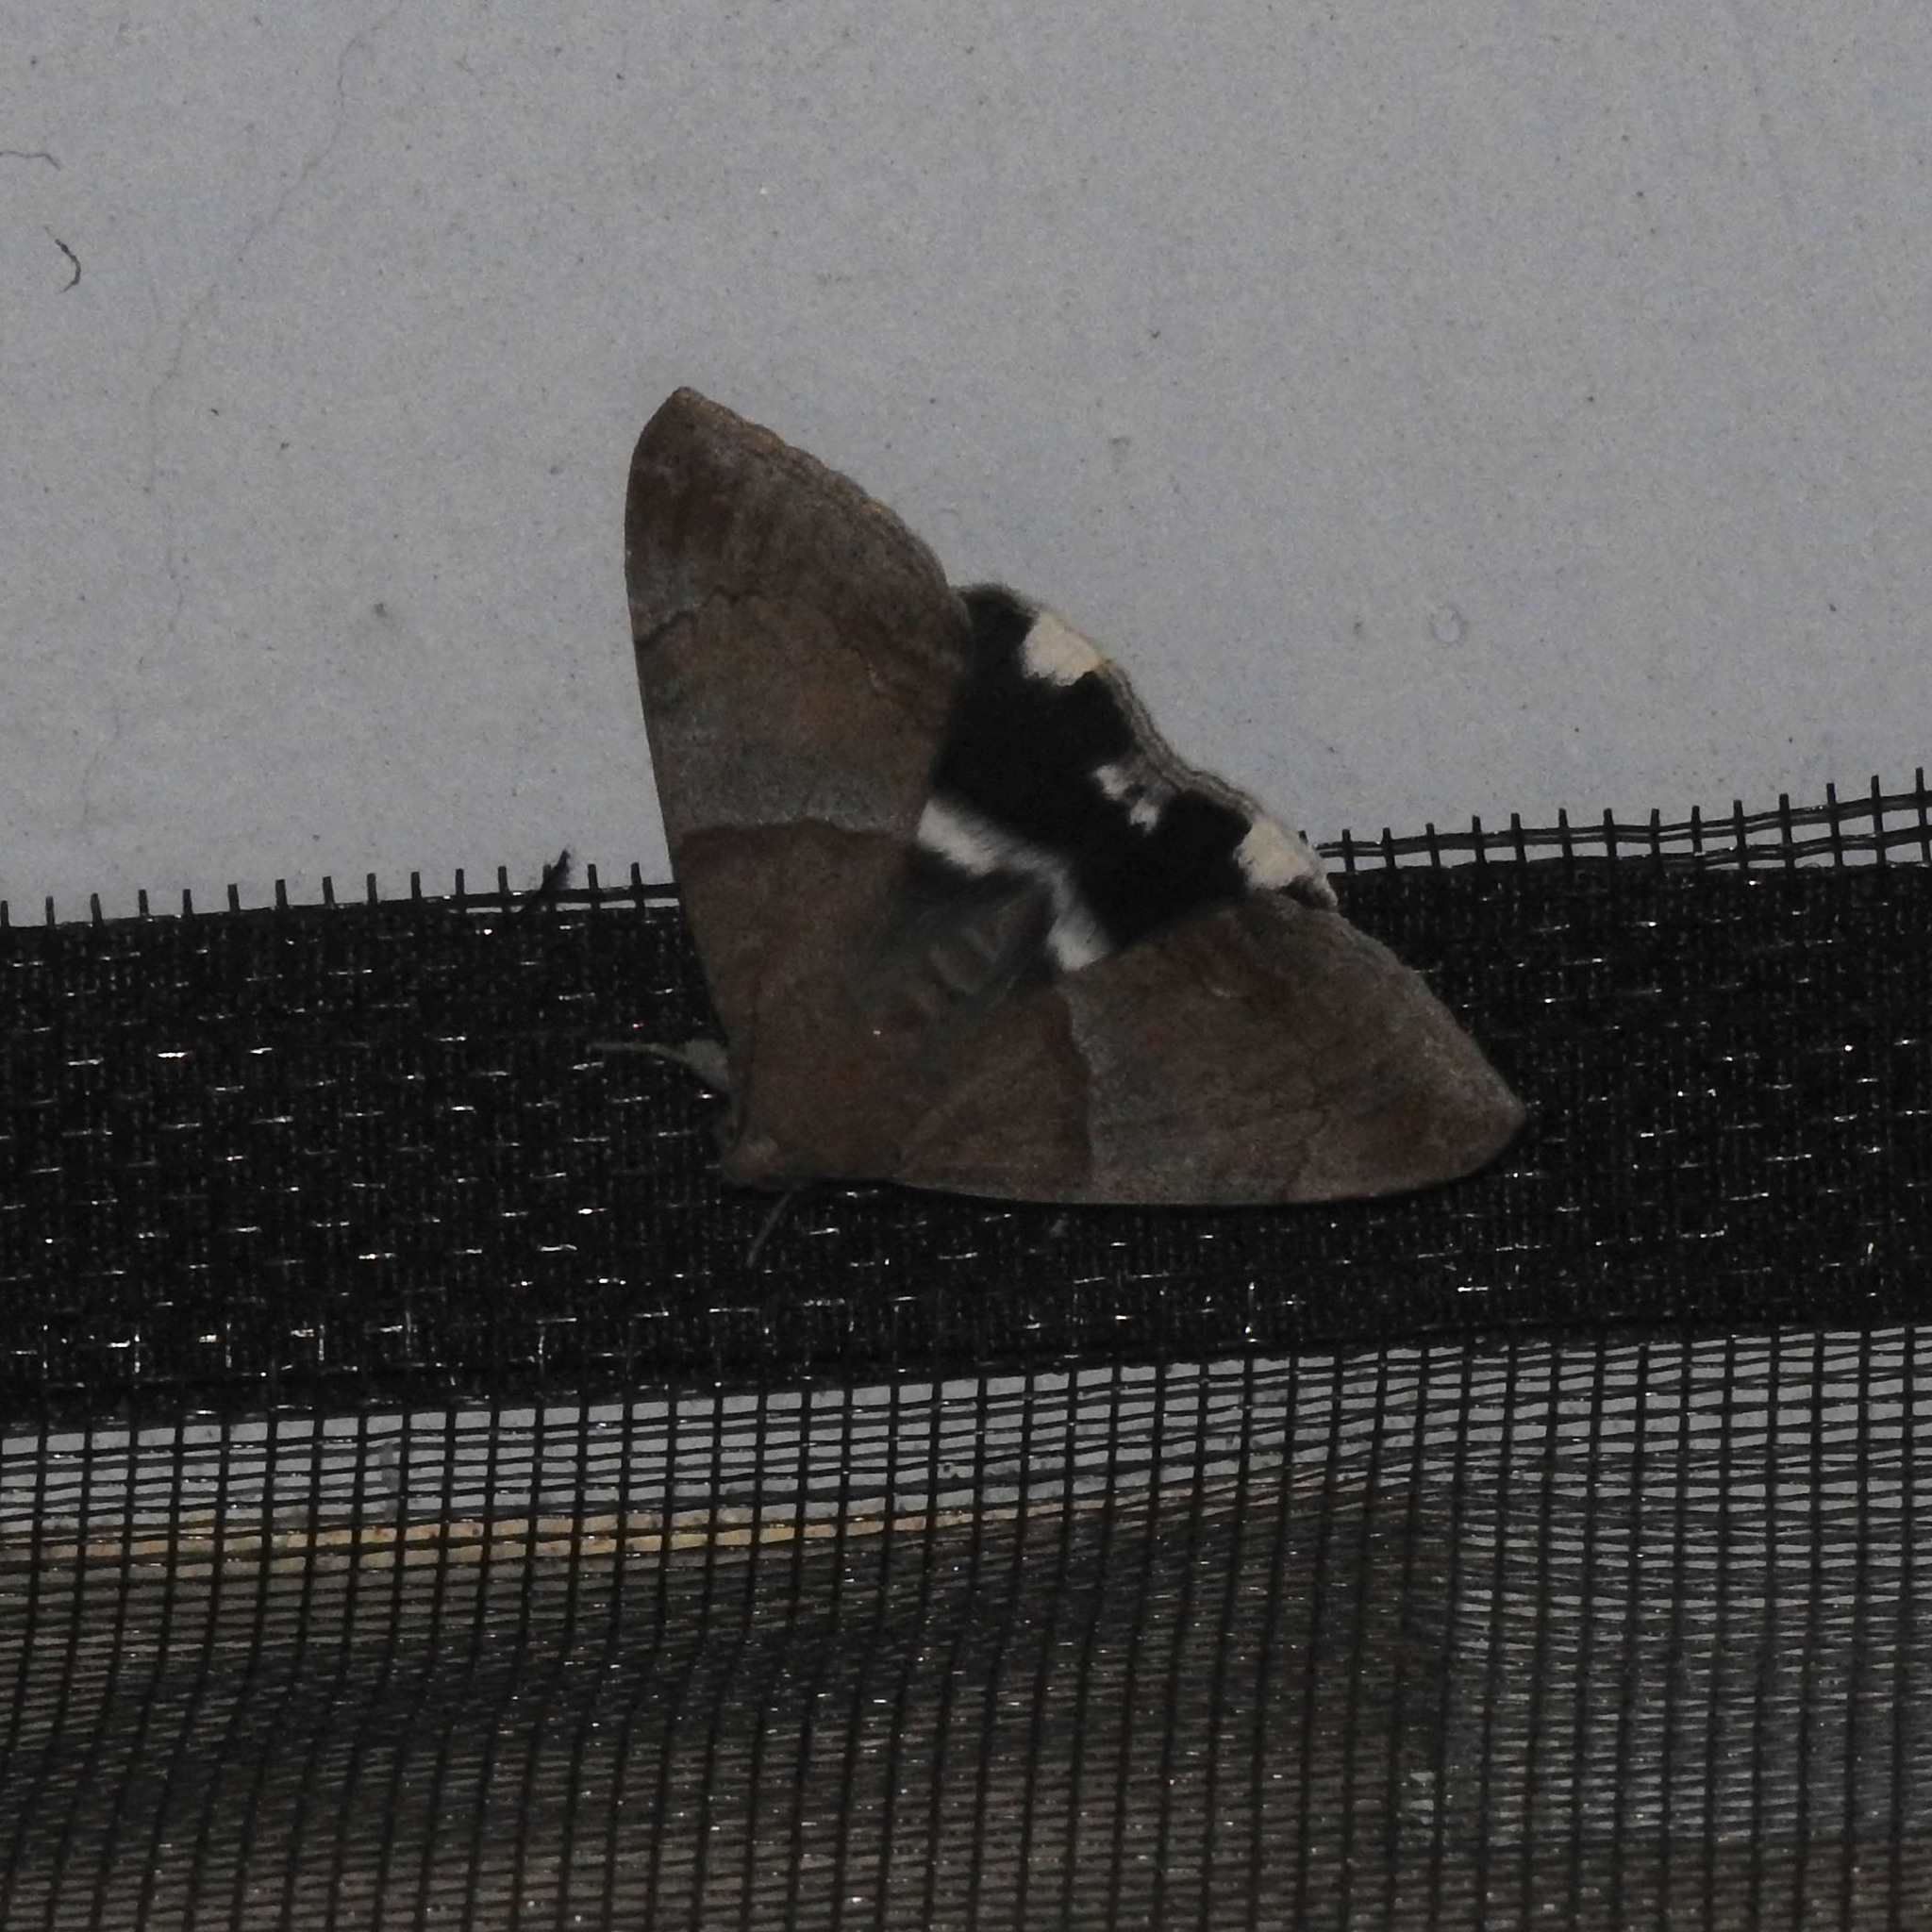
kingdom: Animalia
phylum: Arthropoda
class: Insecta
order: Lepidoptera
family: Erebidae
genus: Achaea
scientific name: Achaea janata
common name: Croton caterpillar
